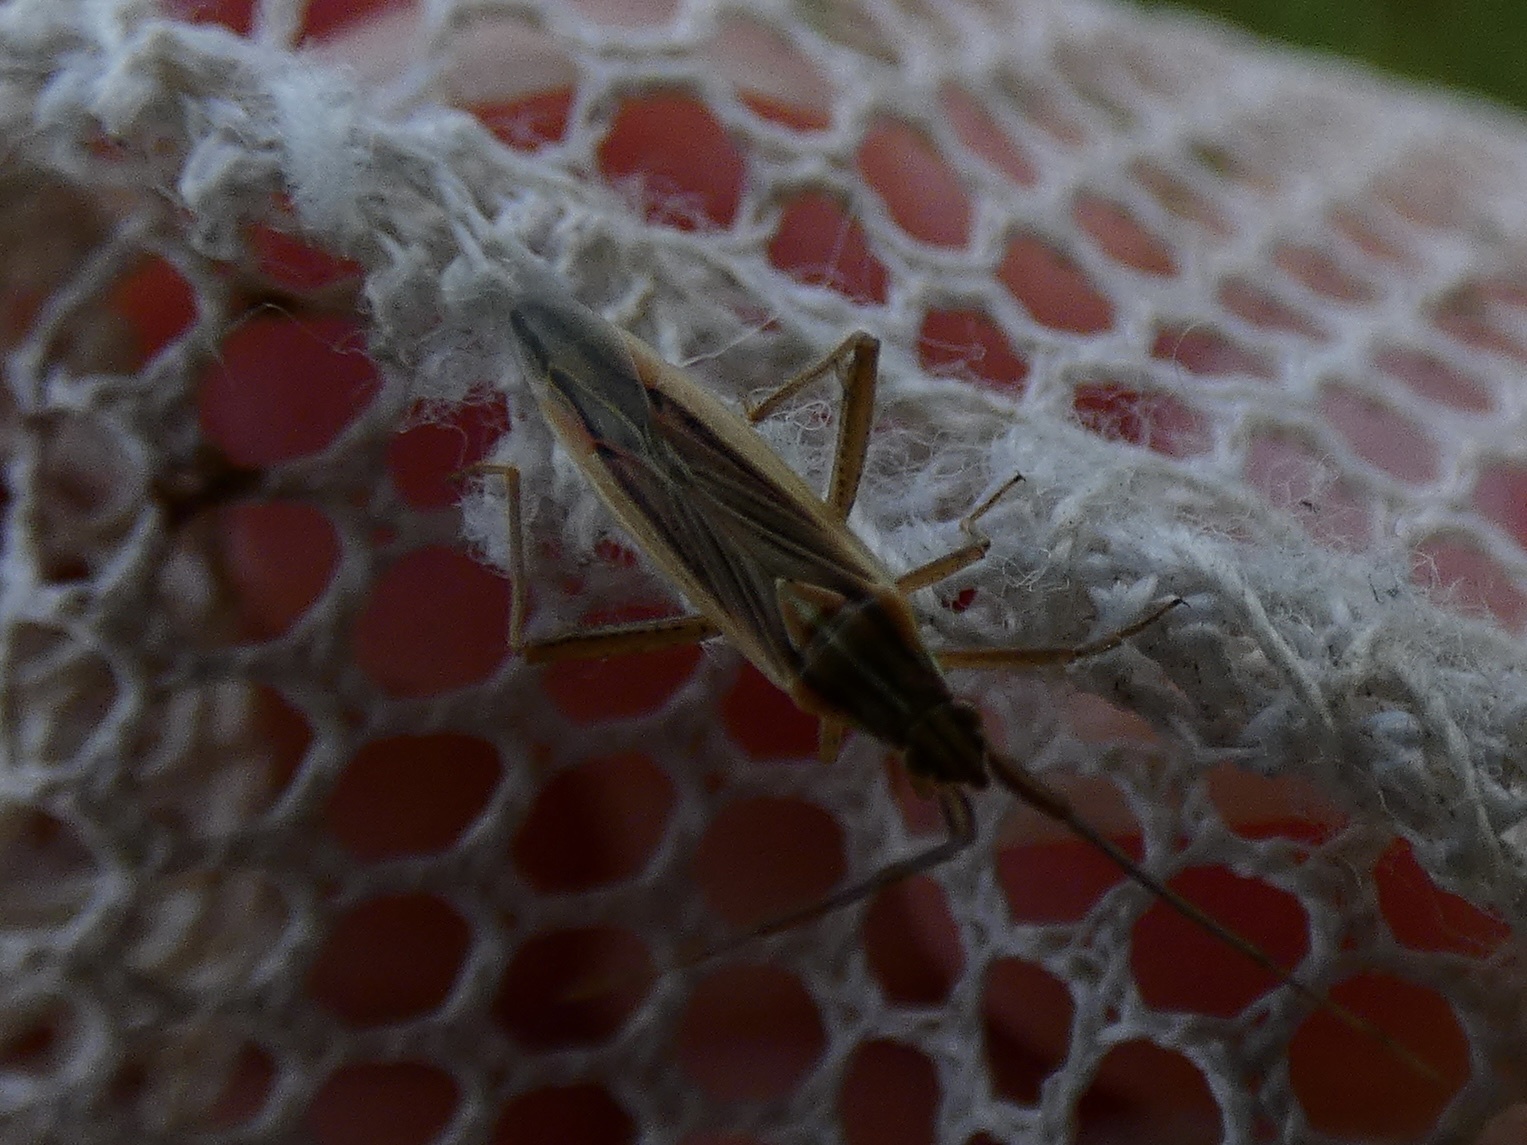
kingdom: Animalia
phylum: Arthropoda
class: Insecta
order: Hemiptera
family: Miridae
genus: Stenodema
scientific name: Stenodema calcarata
